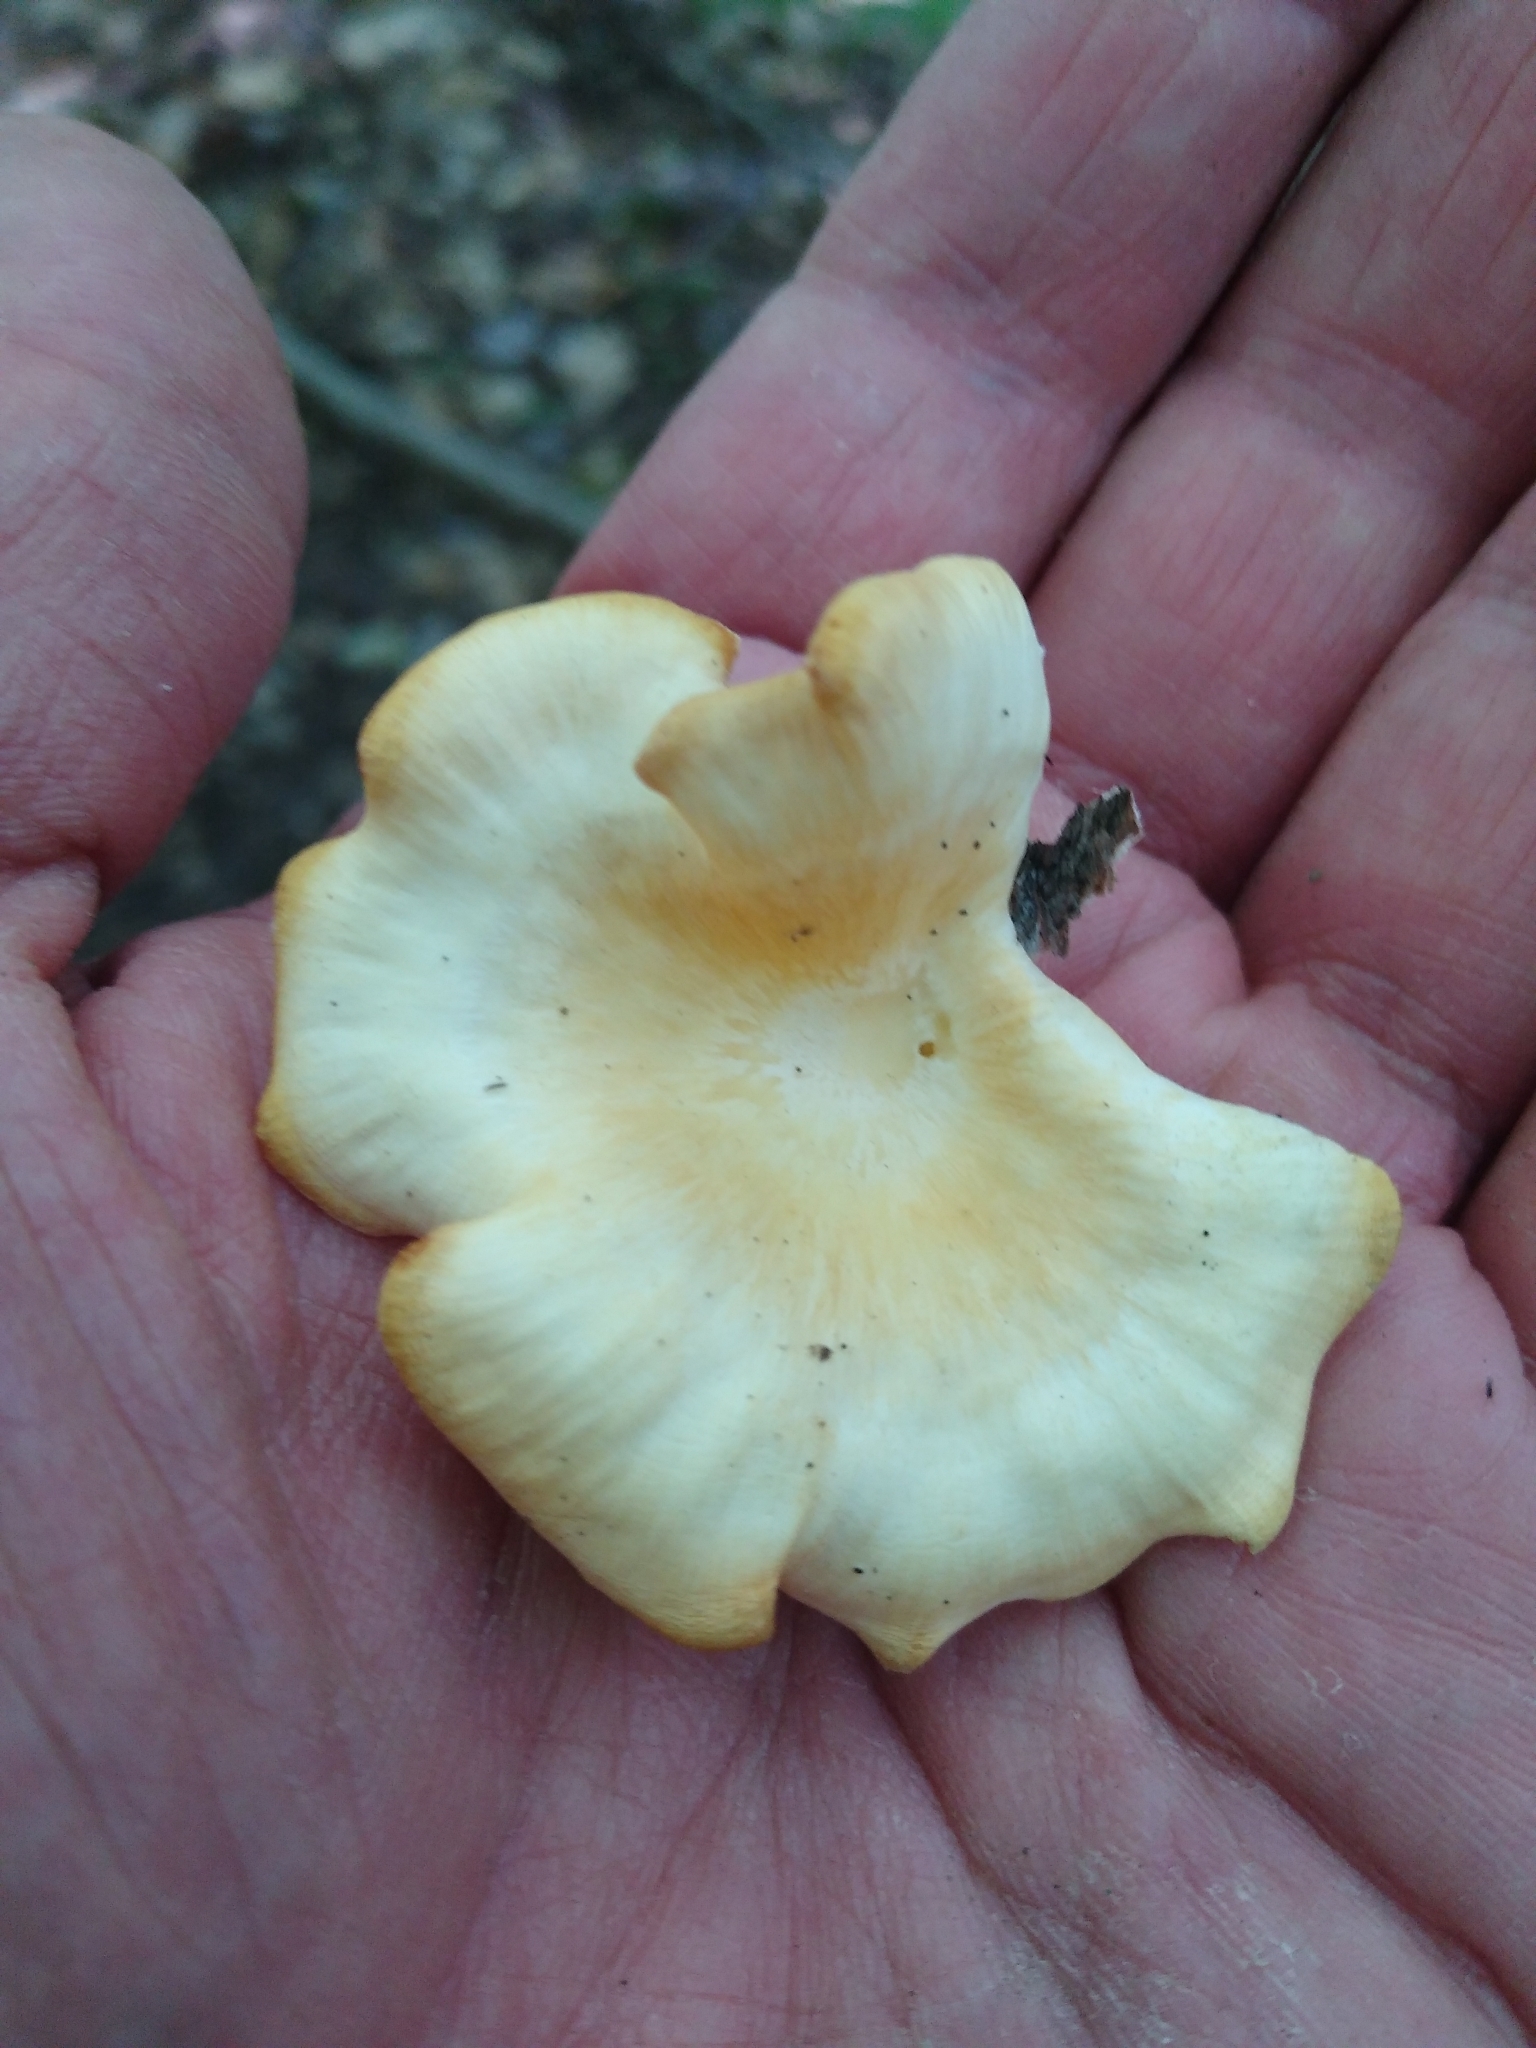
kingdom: Fungi
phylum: Basidiomycota
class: Agaricomycetes
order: Polyporales
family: Polyporaceae
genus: Neofavolus
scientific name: Neofavolus suavissimus
